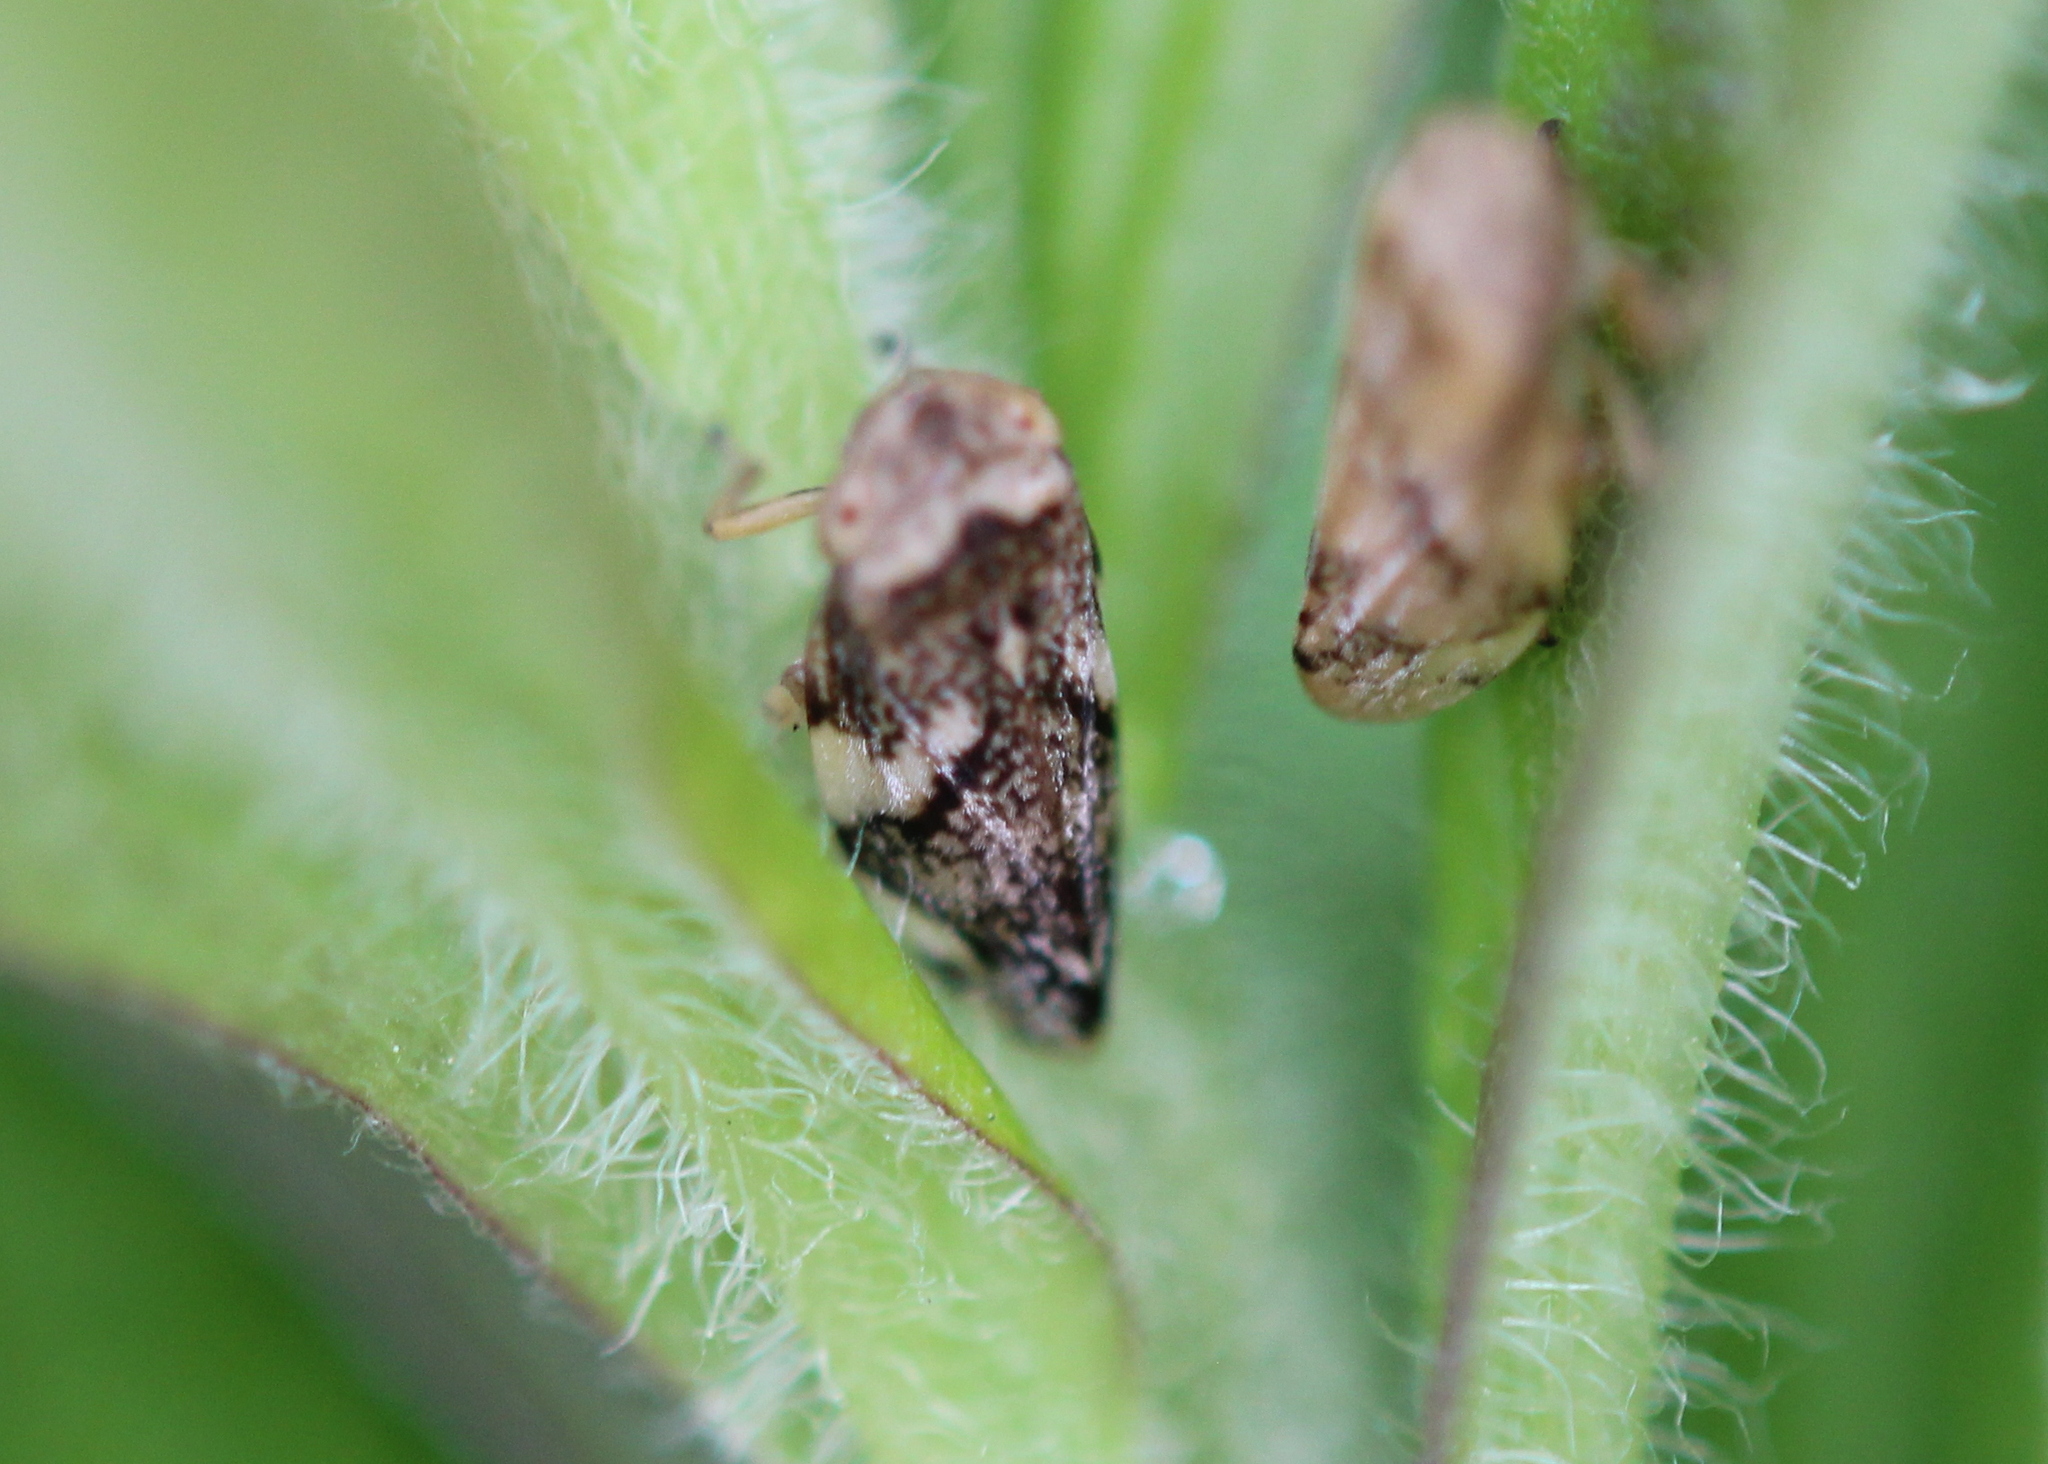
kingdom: Animalia
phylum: Arthropoda
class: Insecta
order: Hemiptera
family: Aphrophoridae
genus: Philaenus
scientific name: Philaenus spumarius
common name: Meadow spittlebug
